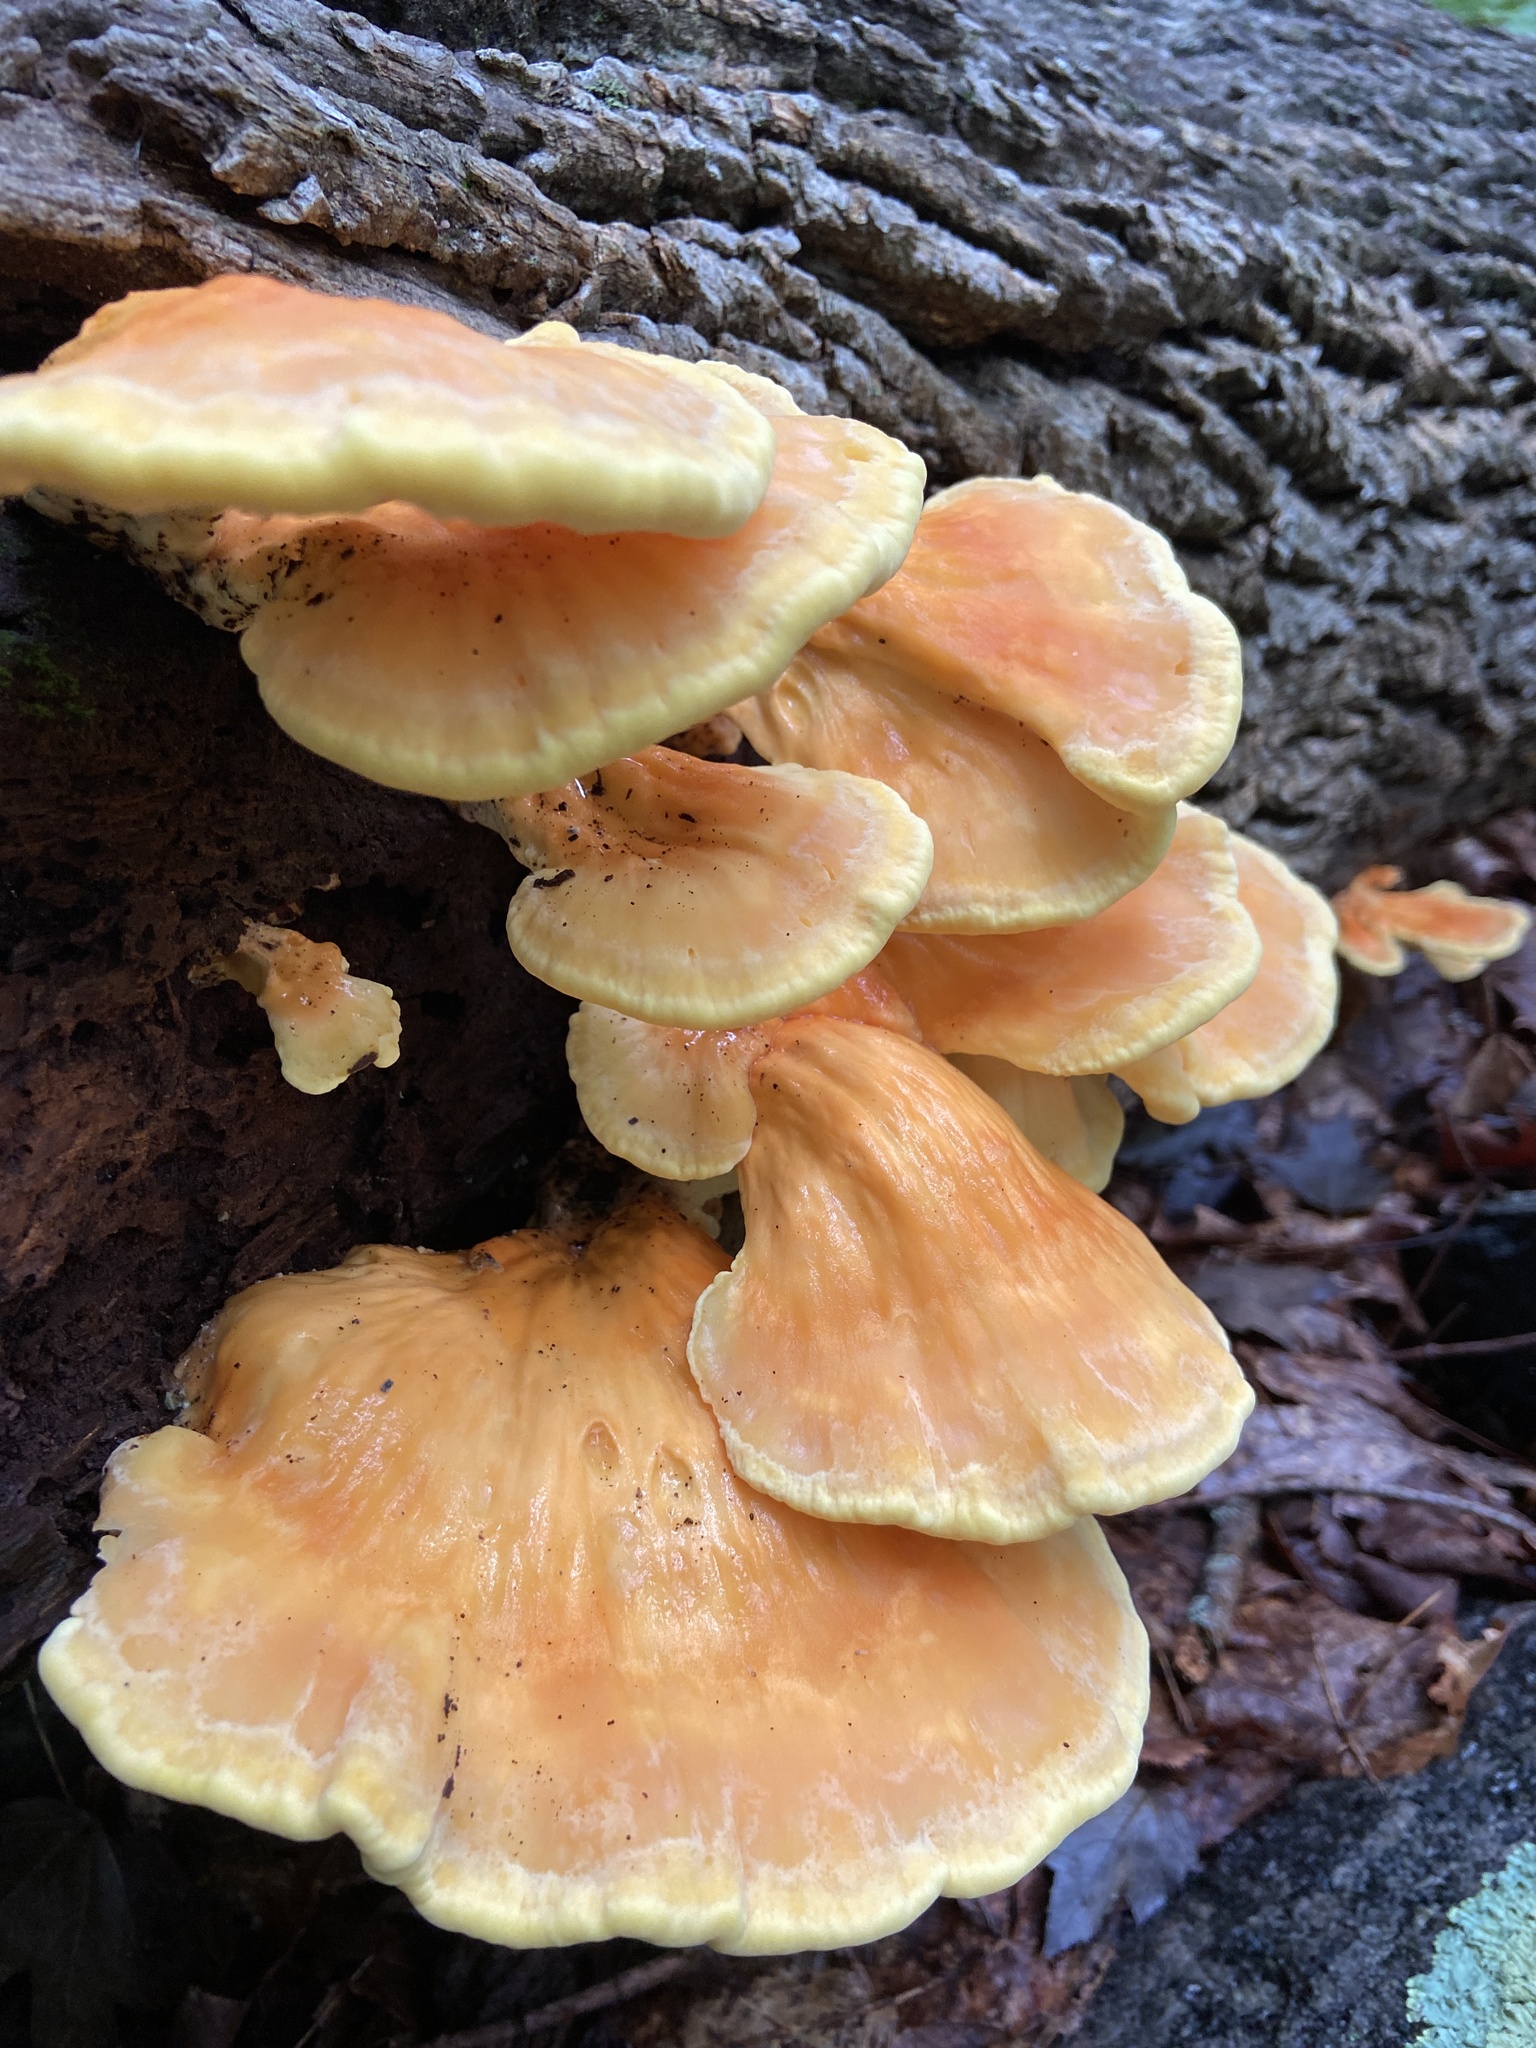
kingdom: Fungi
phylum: Basidiomycota
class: Agaricomycetes
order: Polyporales
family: Laetiporaceae
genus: Laetiporus
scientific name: Laetiporus sulphureus
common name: Chicken of the woods
